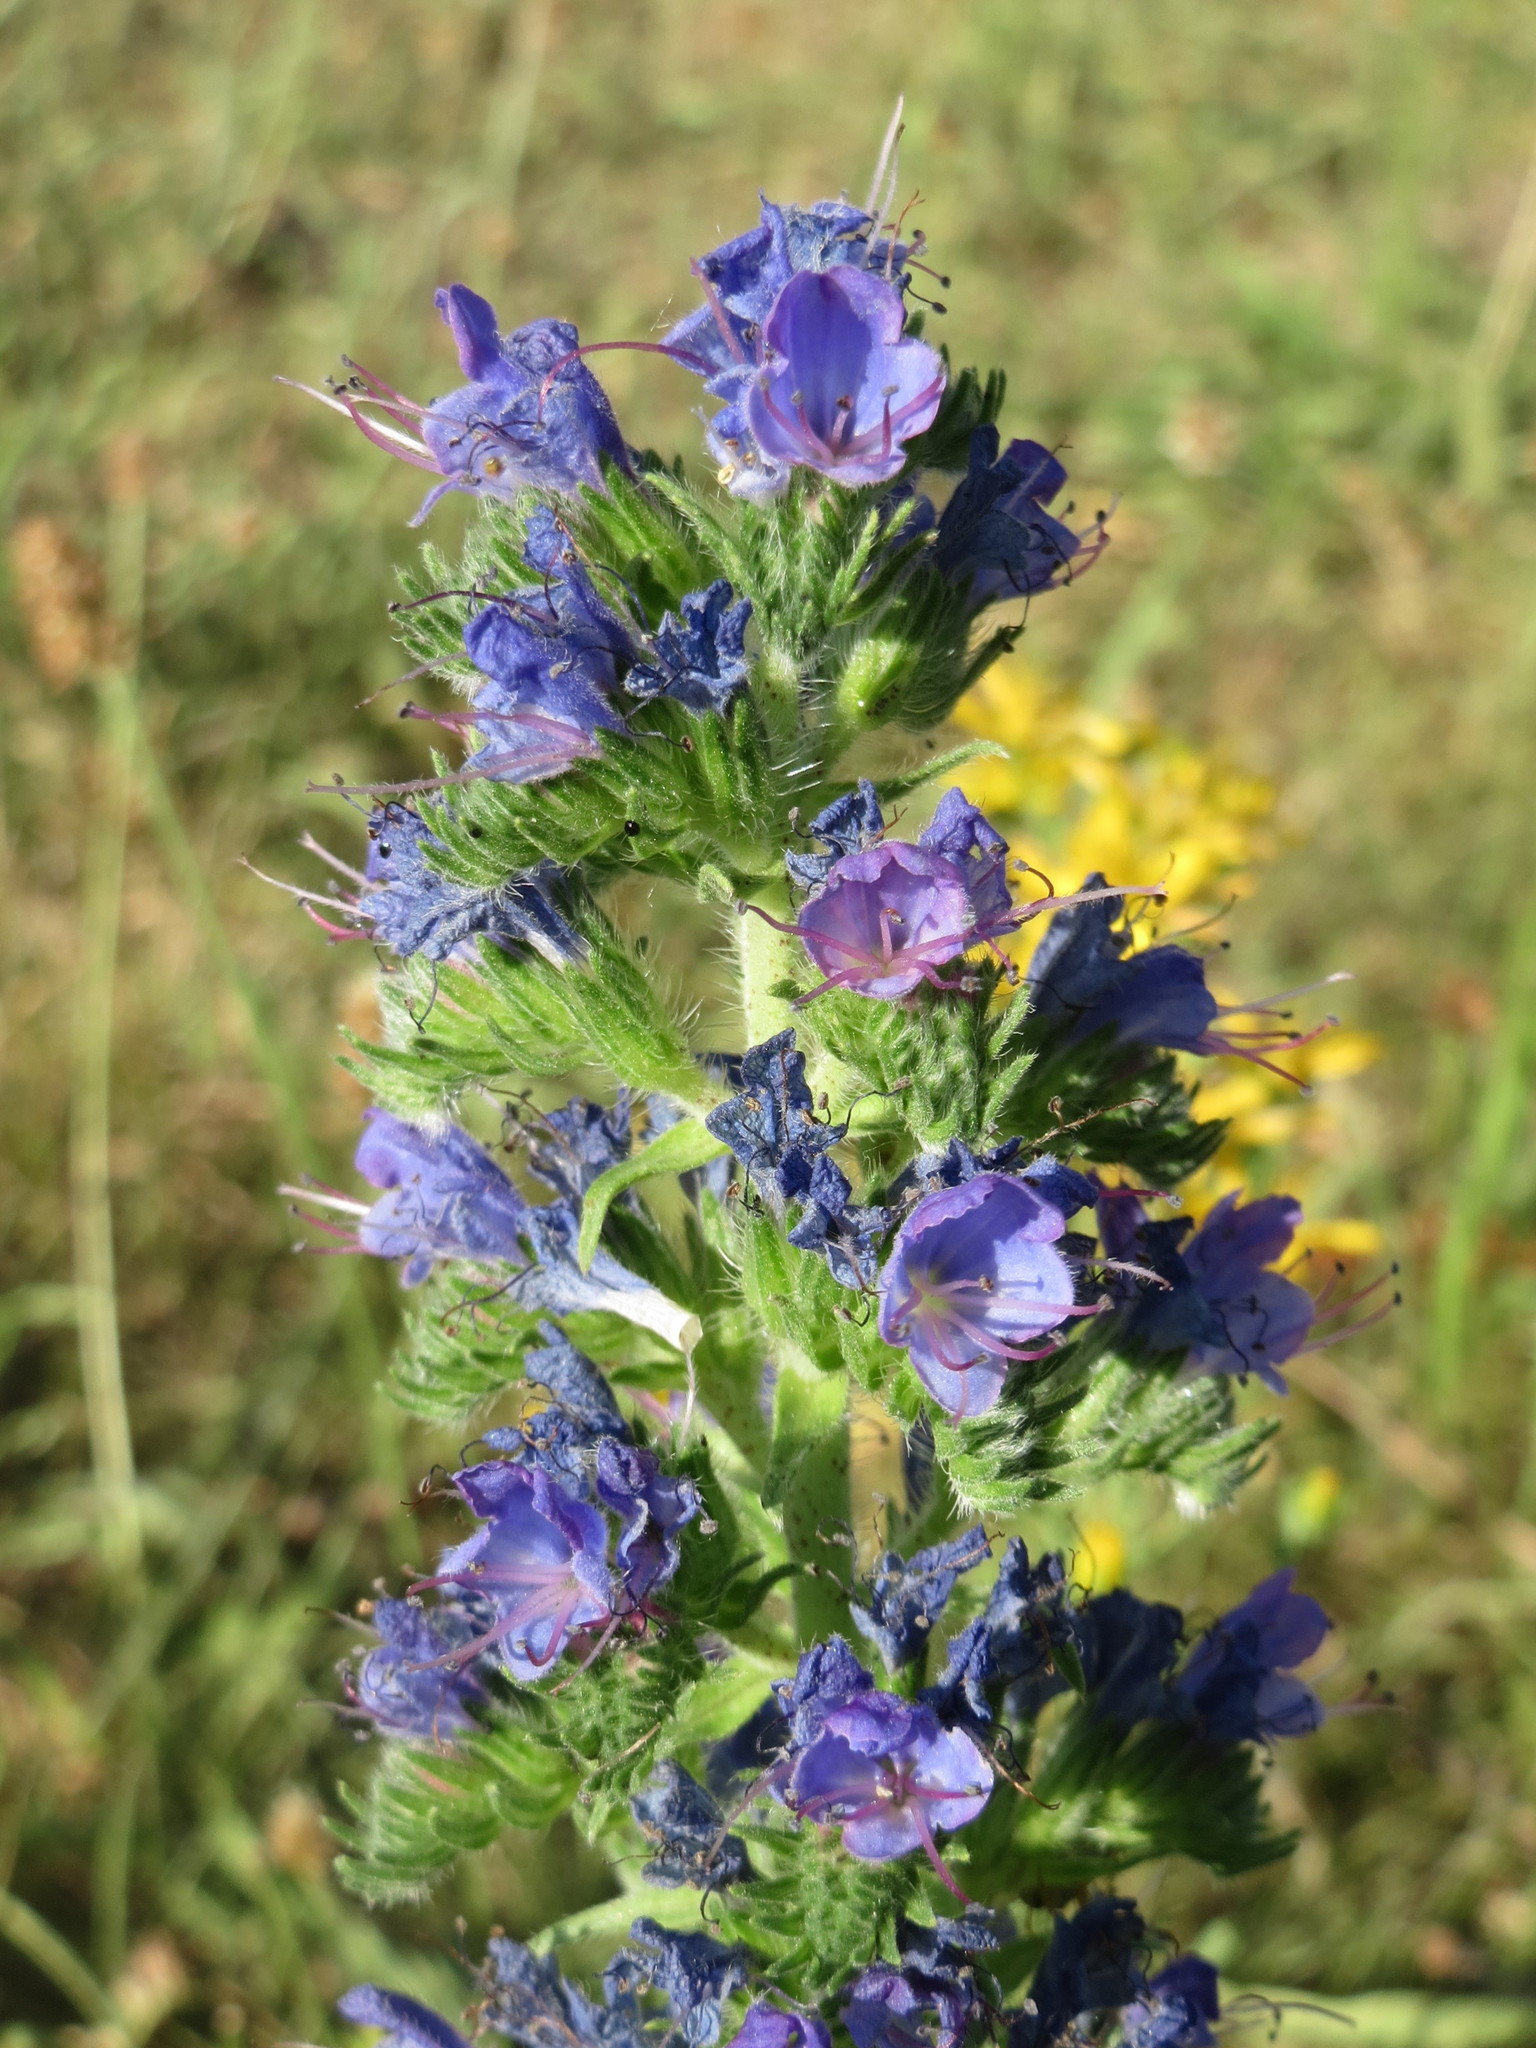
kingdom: Plantae
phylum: Tracheophyta
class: Magnoliopsida
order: Boraginales
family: Boraginaceae
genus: Echium
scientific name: Echium vulgare
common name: Common viper's bugloss
